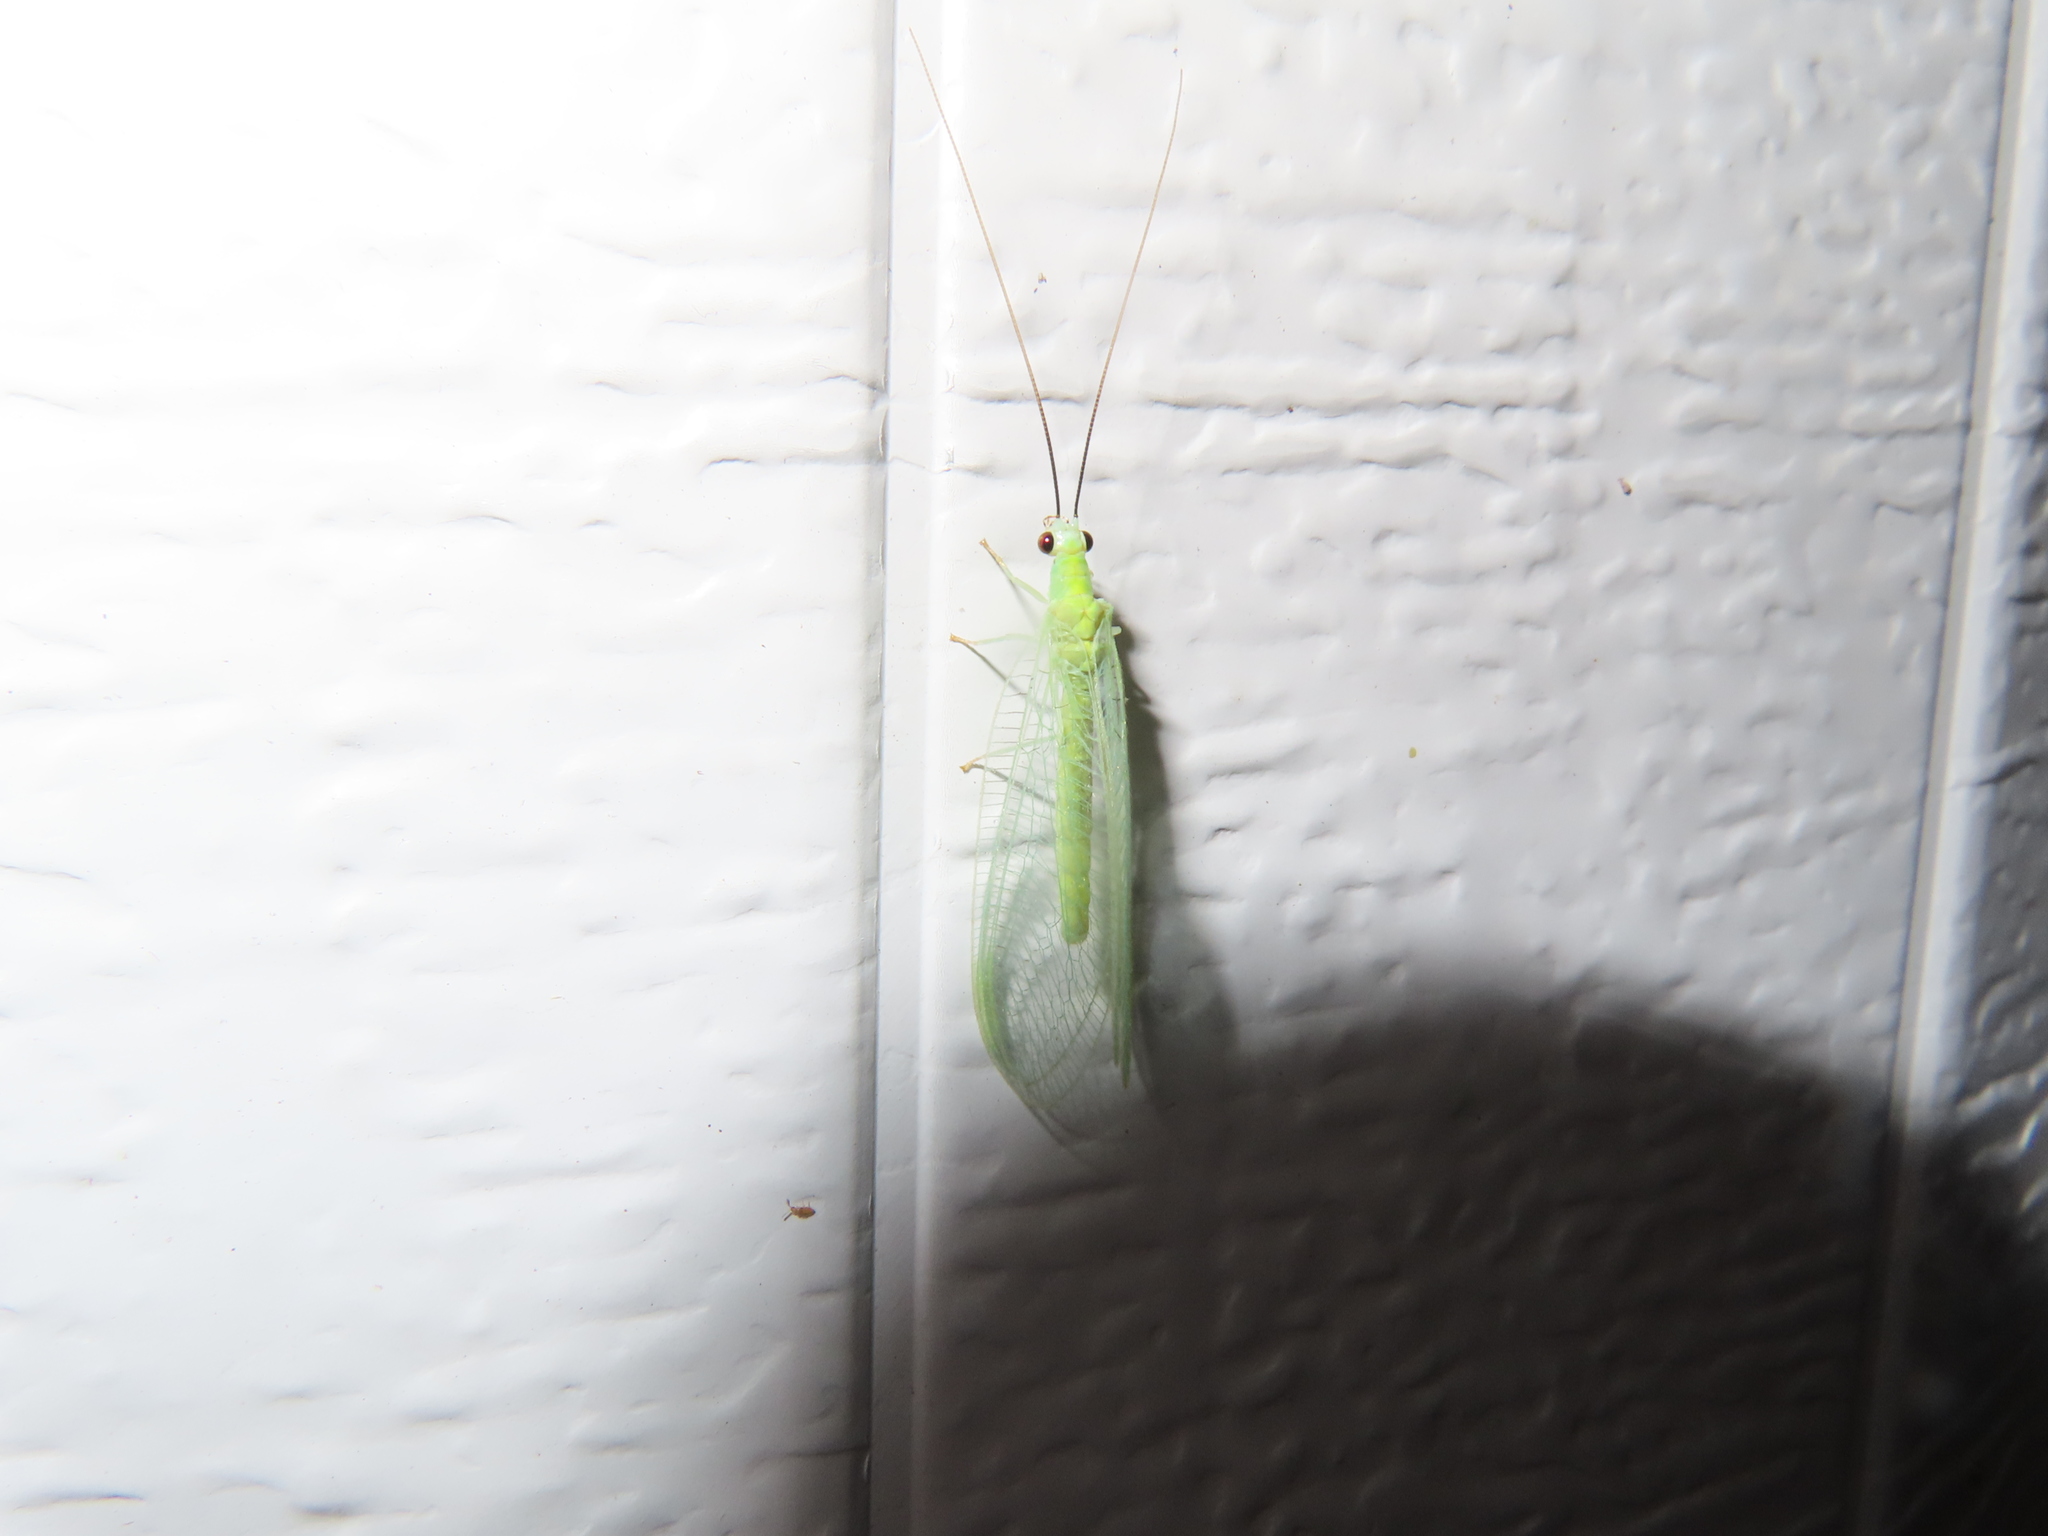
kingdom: Animalia
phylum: Arthropoda
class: Insecta
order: Neuroptera
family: Chrysopidae
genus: Chrysopa
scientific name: Chrysopa nigricornis
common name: Black-horned green lacewing
